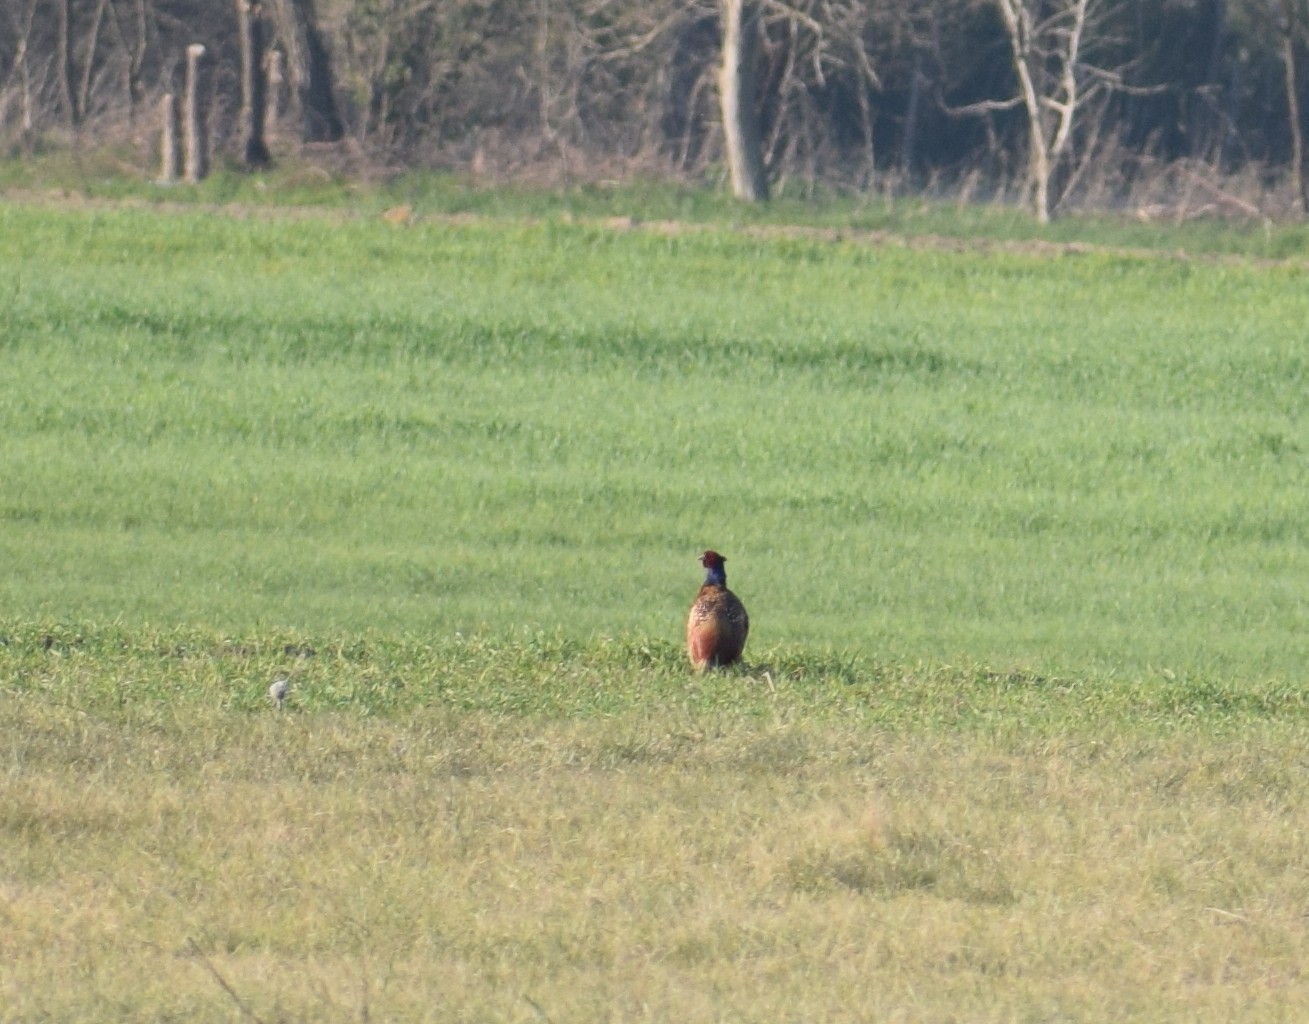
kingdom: Animalia
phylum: Chordata
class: Aves
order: Galliformes
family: Phasianidae
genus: Phasianus
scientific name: Phasianus colchicus
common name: Common pheasant
